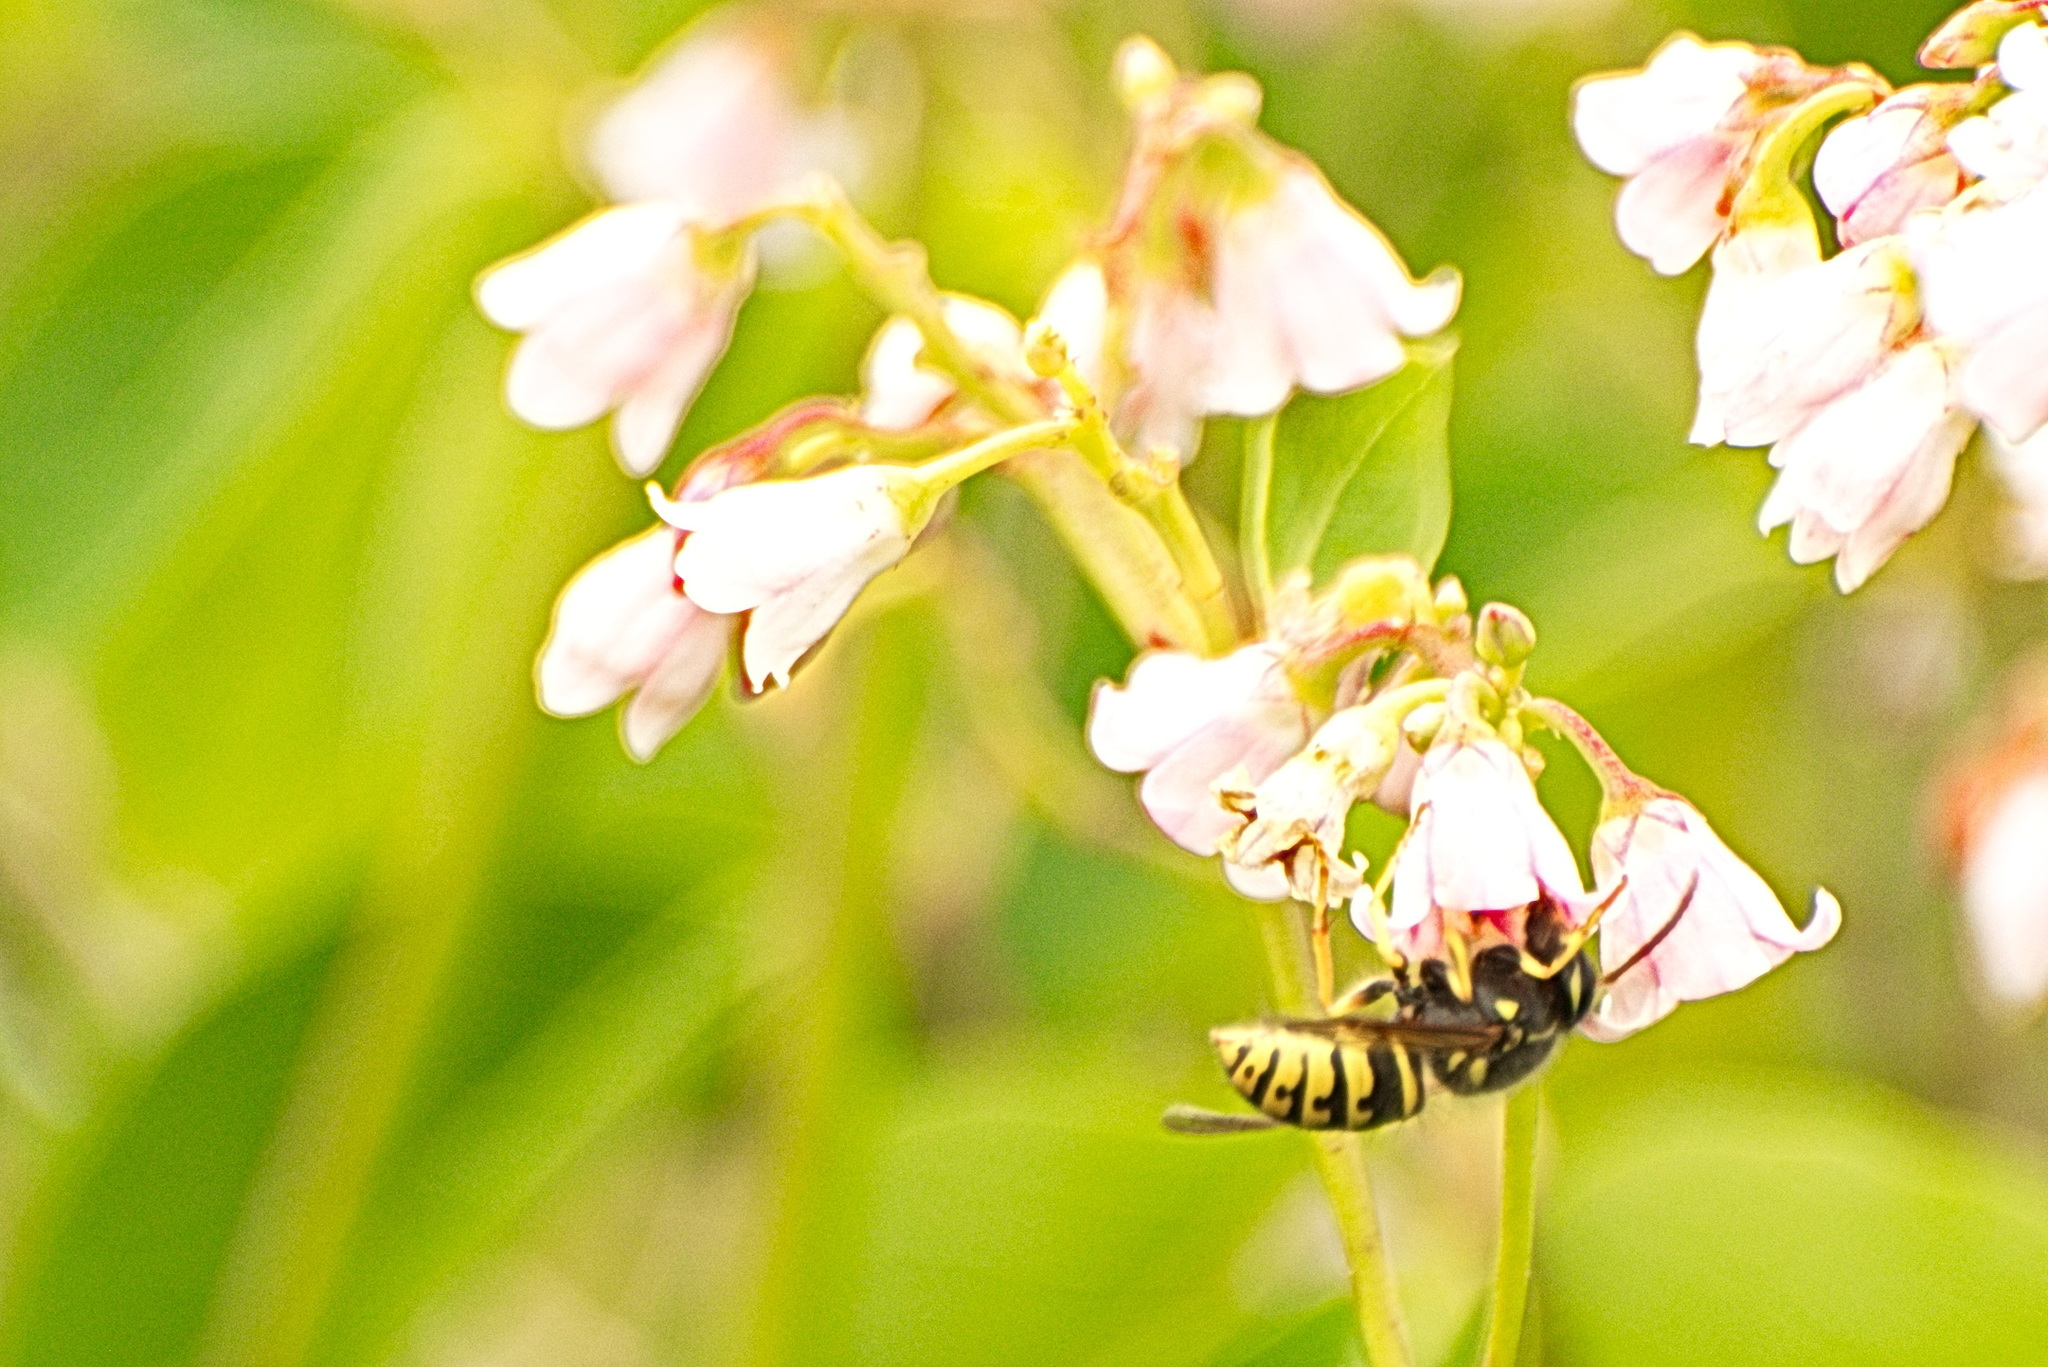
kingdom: Animalia
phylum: Arthropoda
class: Insecta
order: Hymenoptera
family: Vespidae
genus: Dolichovespula
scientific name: Dolichovespula arenaria
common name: Aerial yellowjacket
